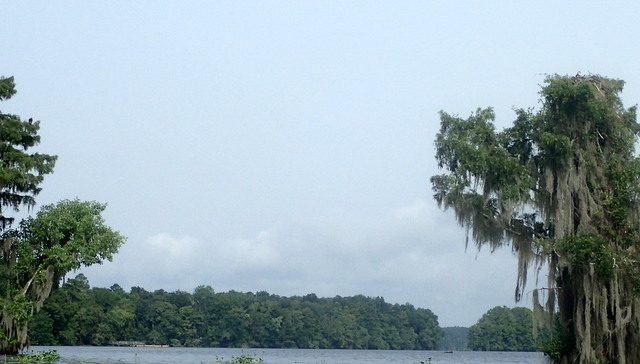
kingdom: Animalia
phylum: Chordata
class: Aves
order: Accipitriformes
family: Pandionidae
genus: Pandion
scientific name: Pandion haliaetus
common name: Osprey
